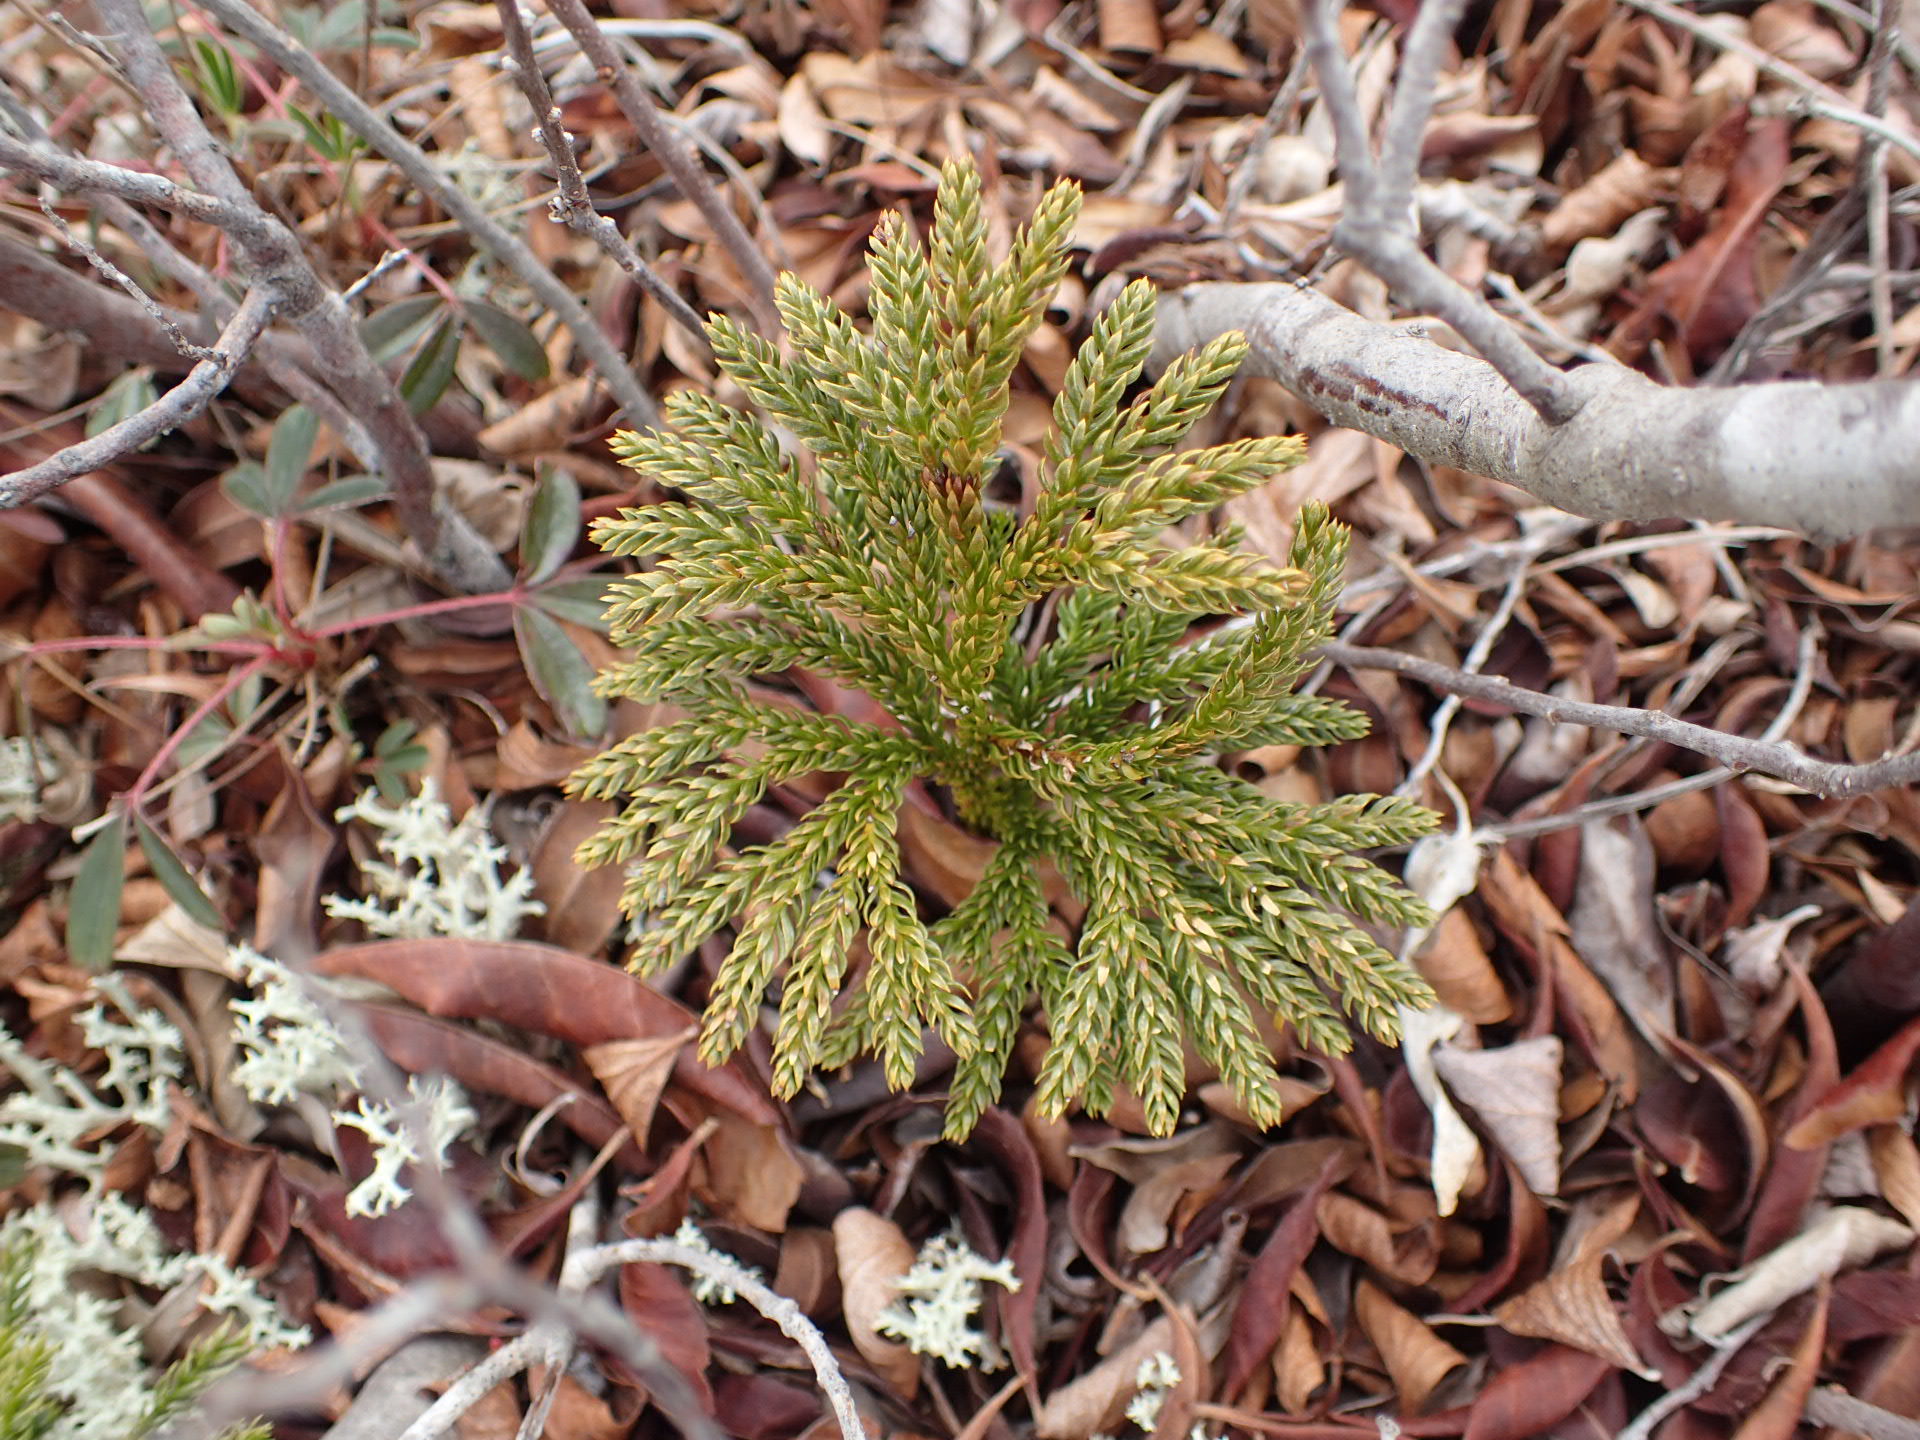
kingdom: Plantae
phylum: Tracheophyta
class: Lycopodiopsida
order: Lycopodiales
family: Lycopodiaceae
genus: Dendrolycopodium
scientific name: Dendrolycopodium hickeyi
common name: Hickey's clubmoss
